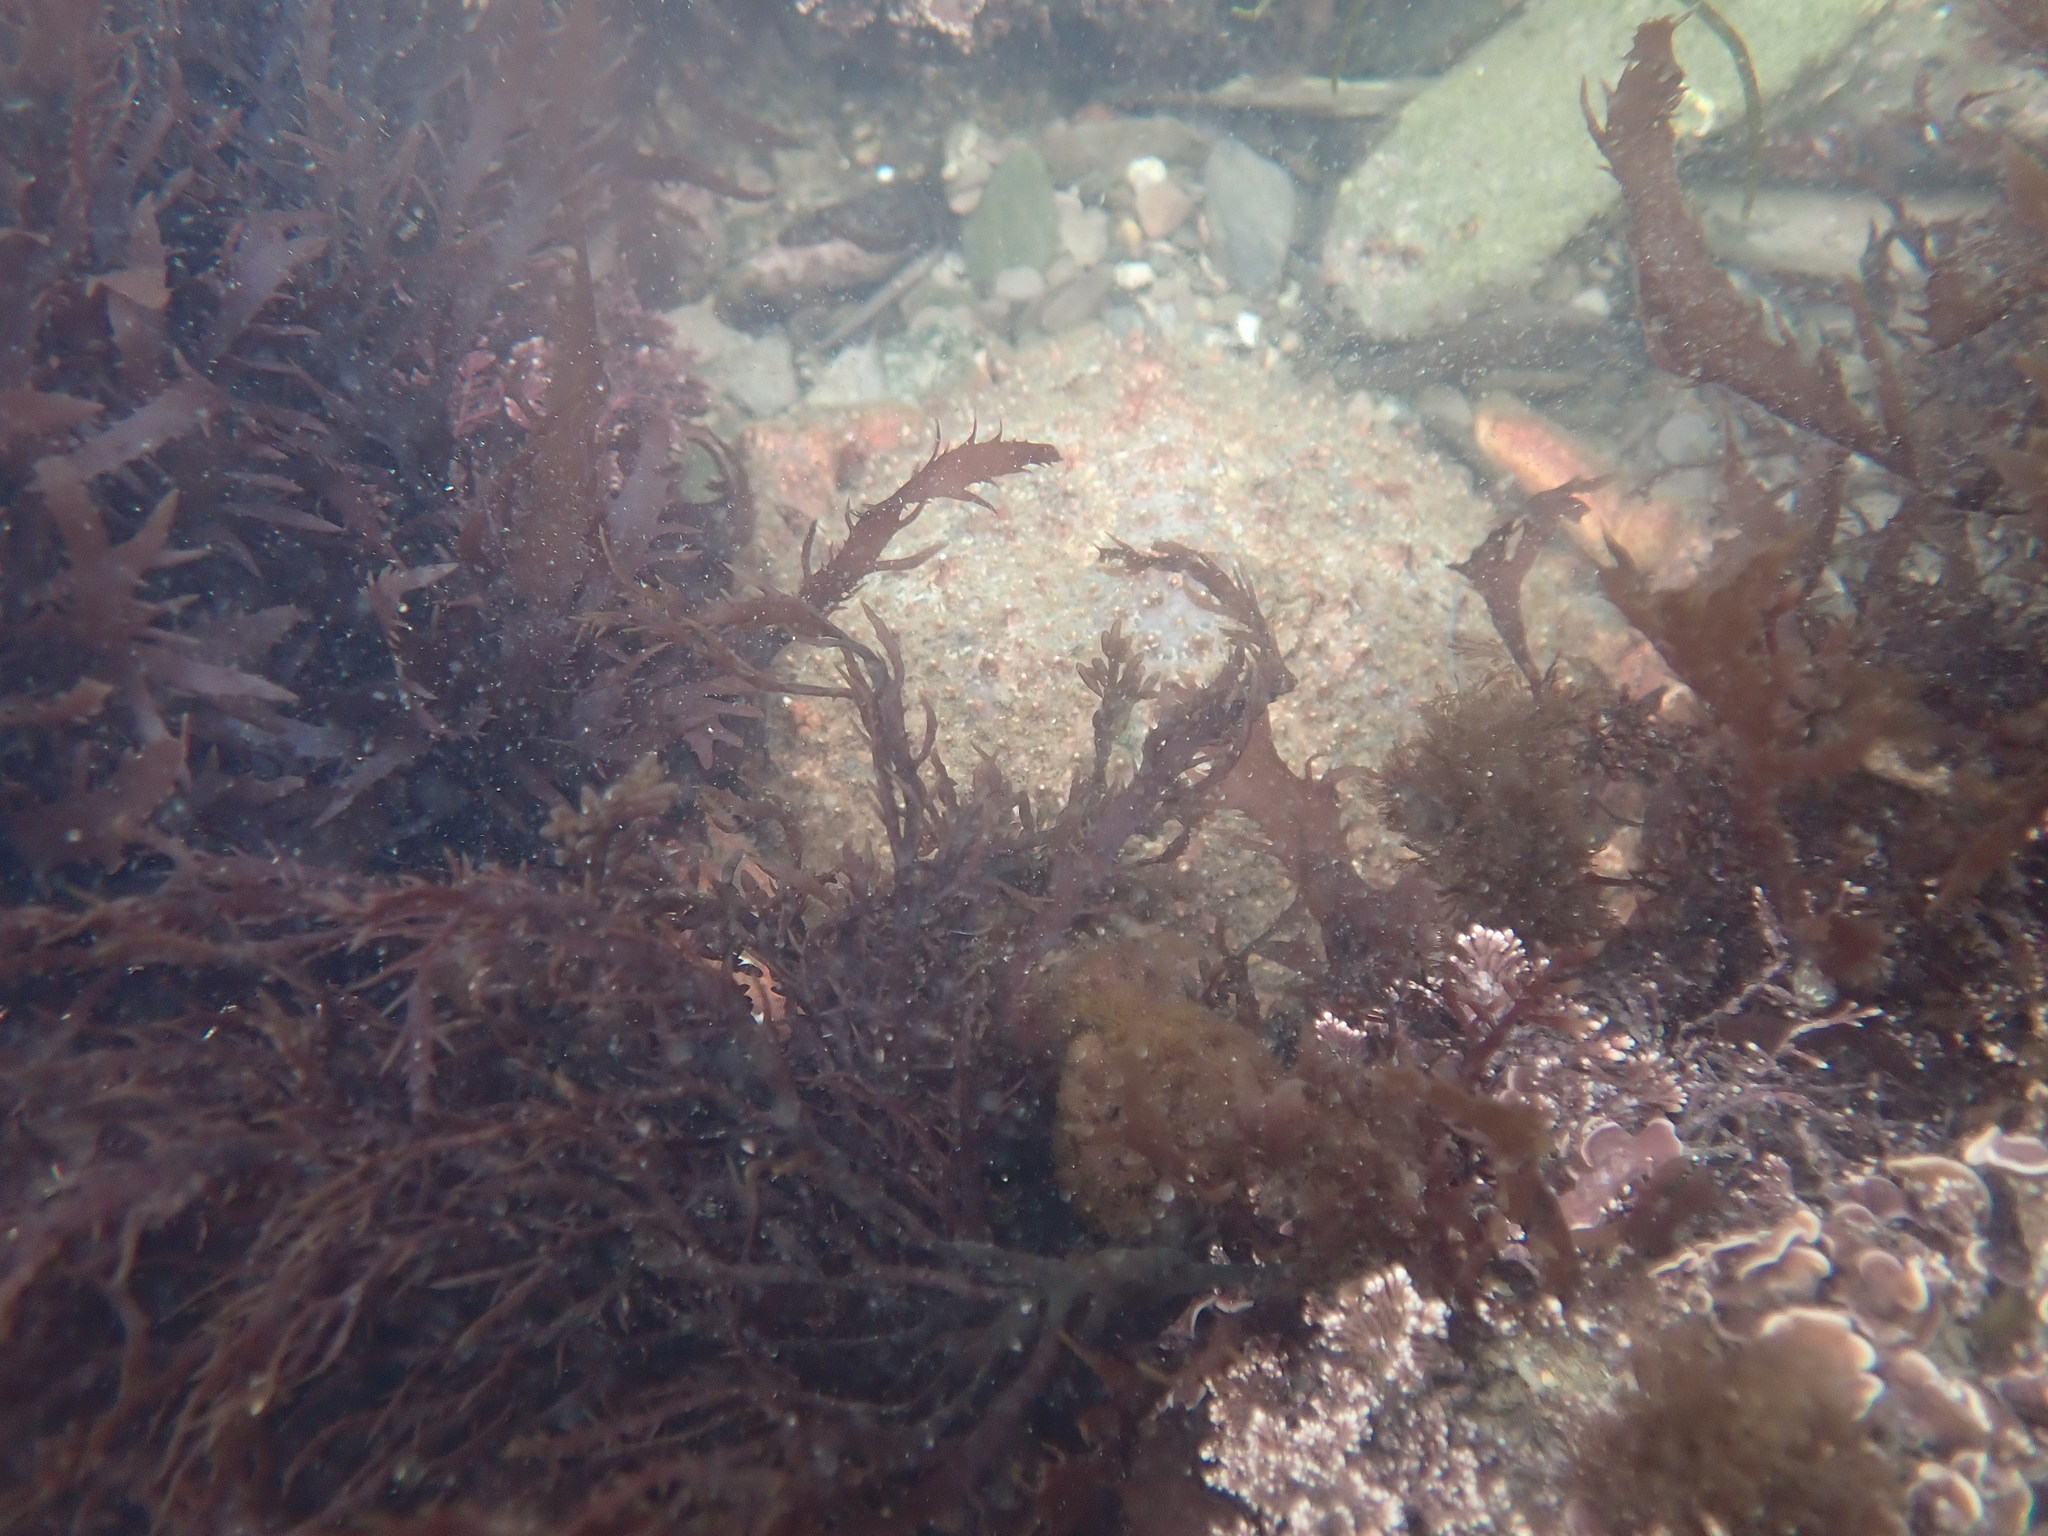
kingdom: Animalia
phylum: Arthropoda
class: Malacostraca
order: Decapoda
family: Majidae
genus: Maja
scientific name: Maja brachydactyla
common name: Common spider crab
